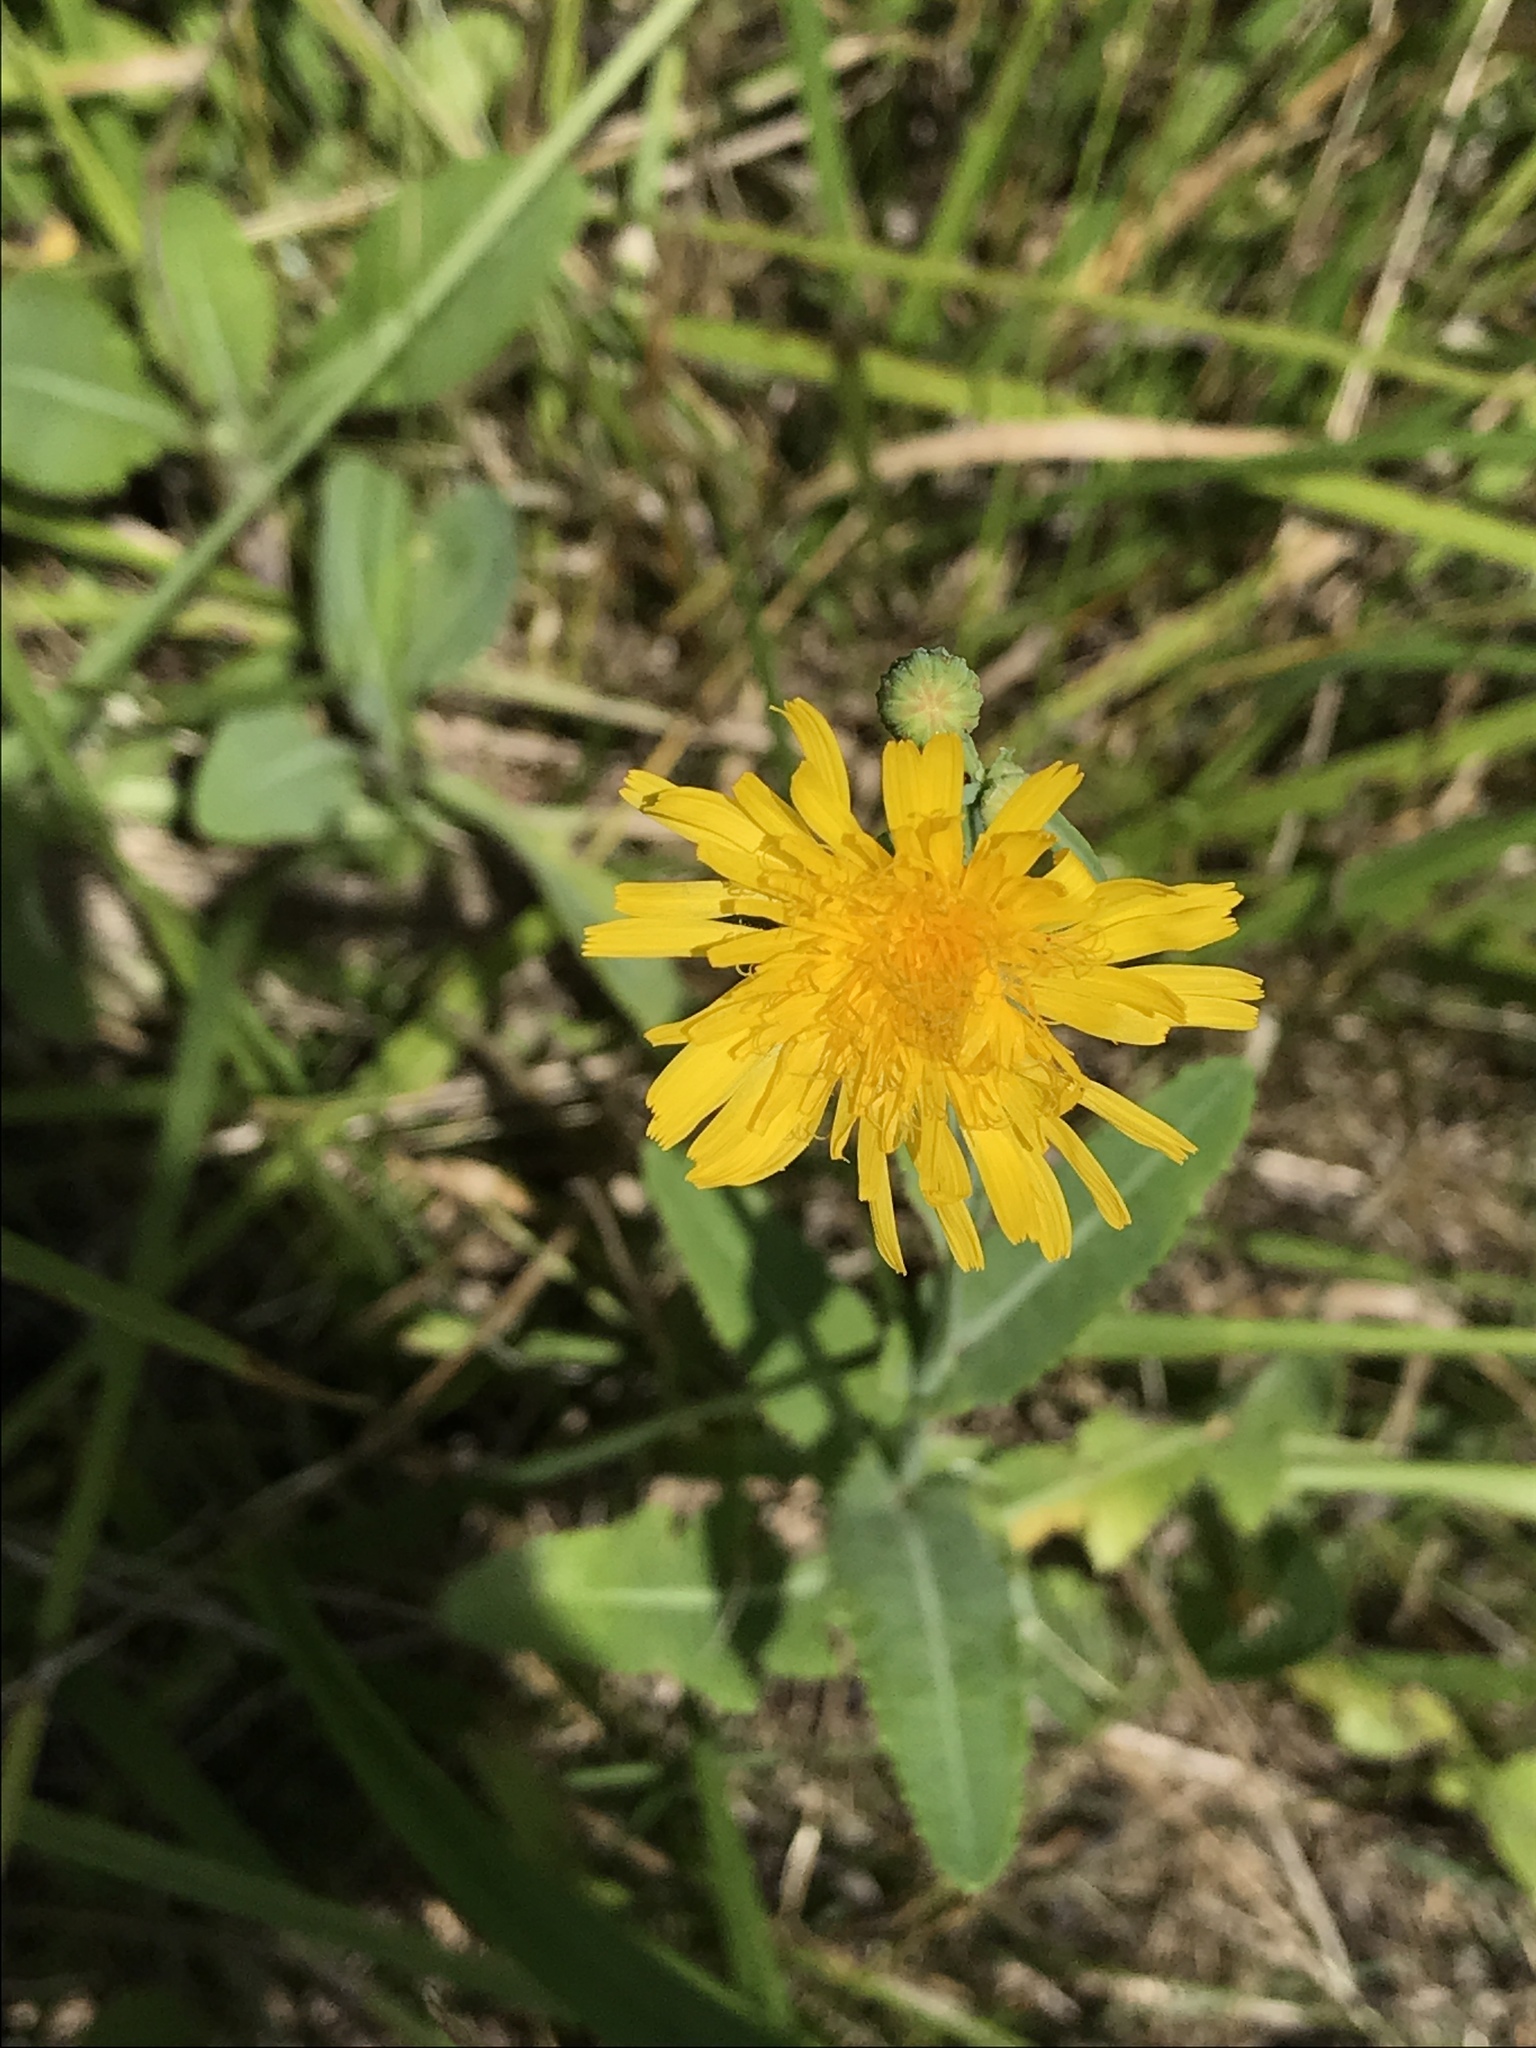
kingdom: Plantae
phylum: Tracheophyta
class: Magnoliopsida
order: Asterales
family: Asteraceae
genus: Sonchus
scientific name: Sonchus arvensis
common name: Perennial sow-thistle
